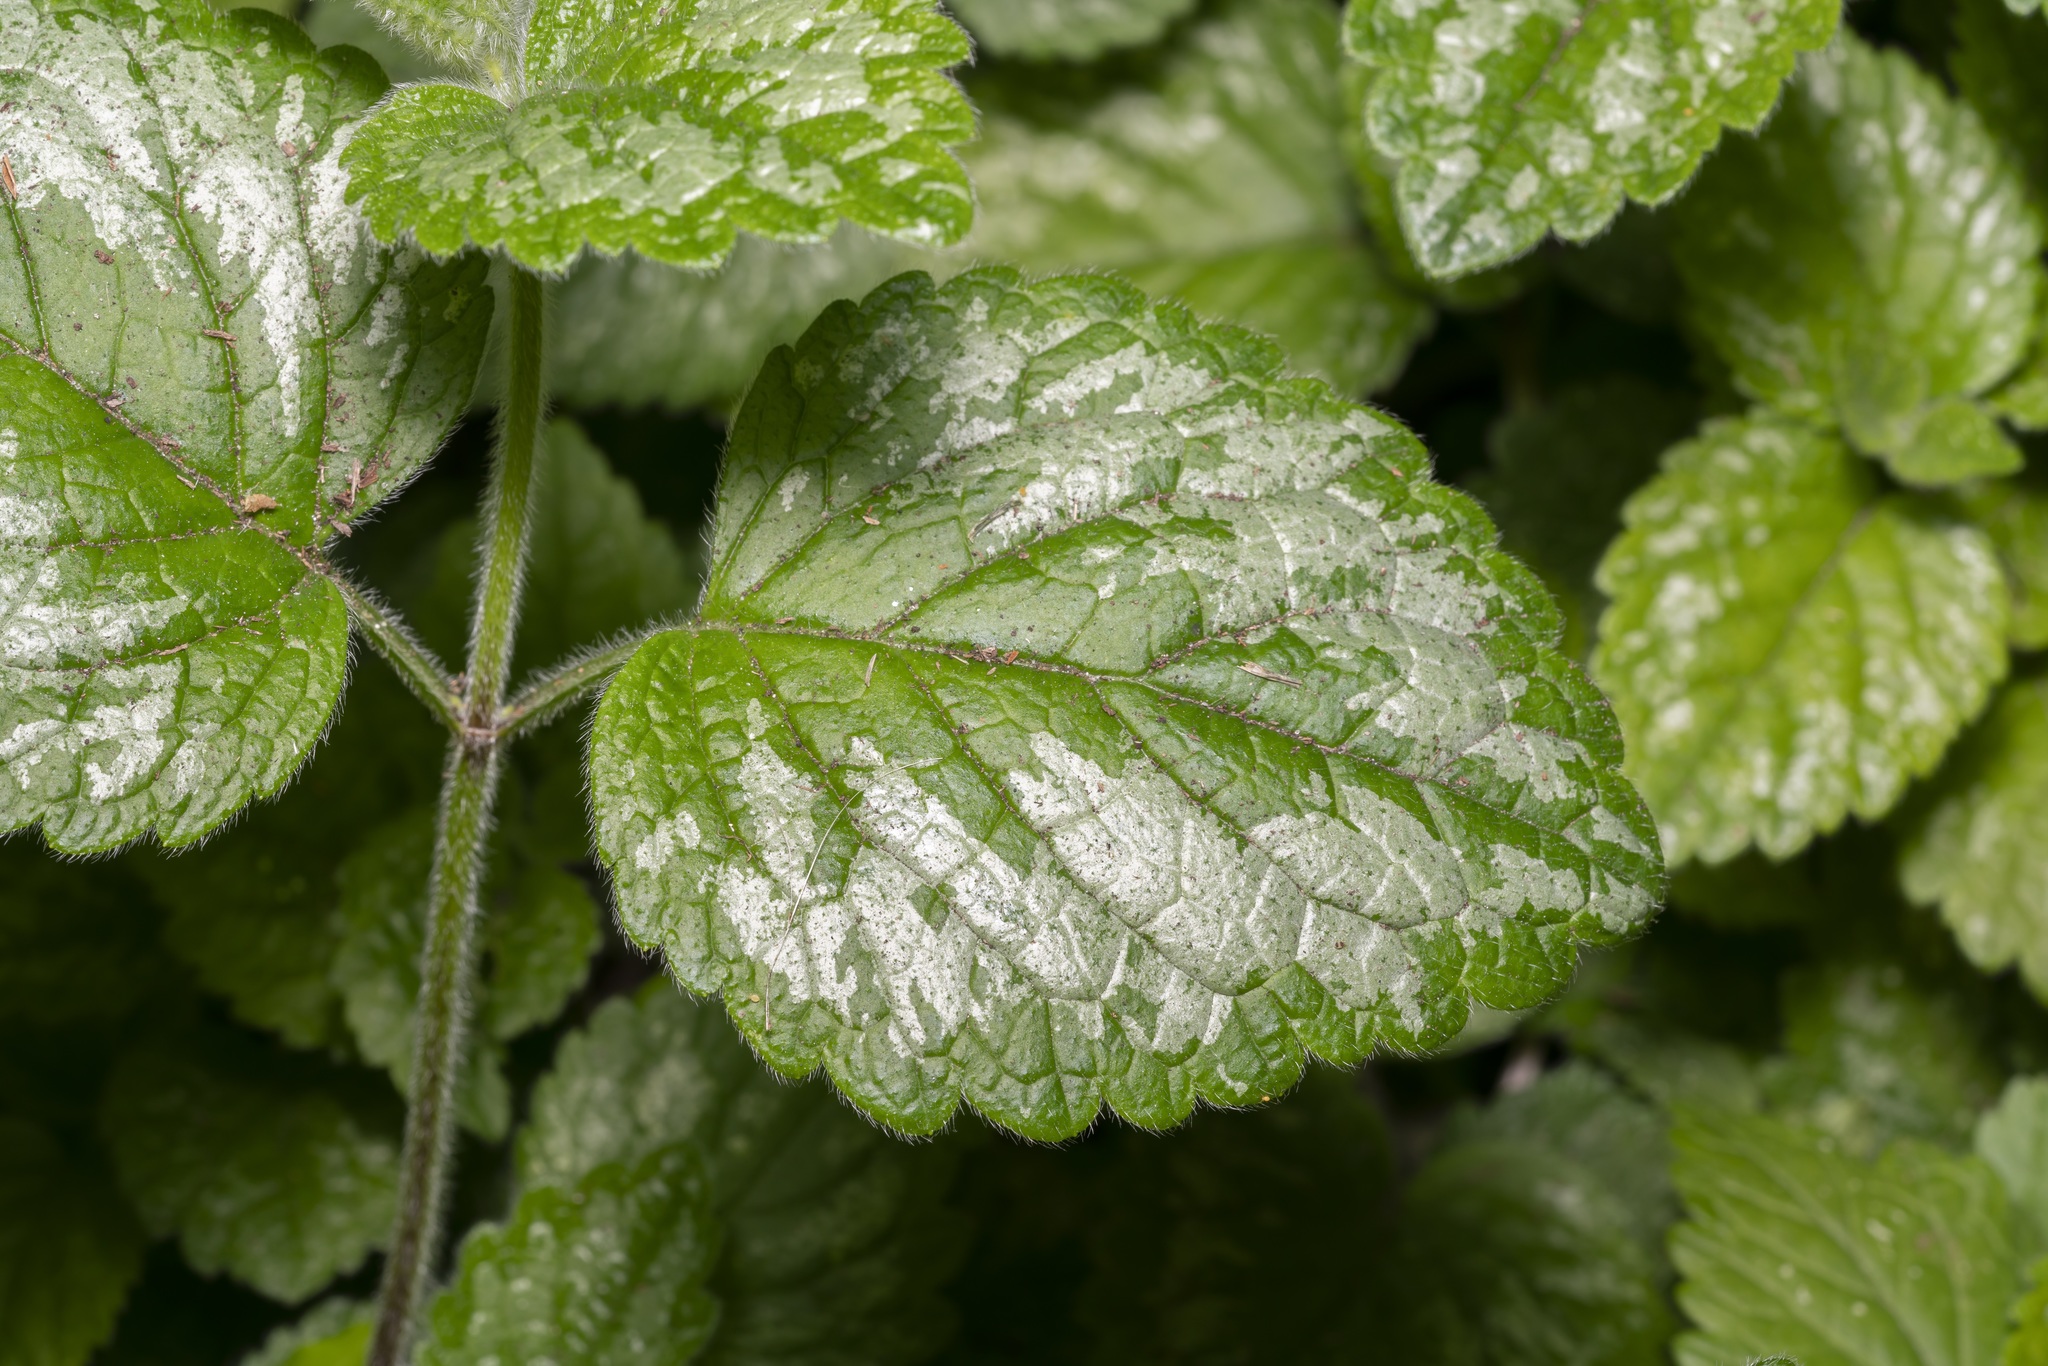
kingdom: Plantae
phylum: Tracheophyta
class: Magnoliopsida
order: Lamiales
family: Lamiaceae
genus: Lamium
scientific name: Lamium galeobdolon
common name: Yellow archangel
